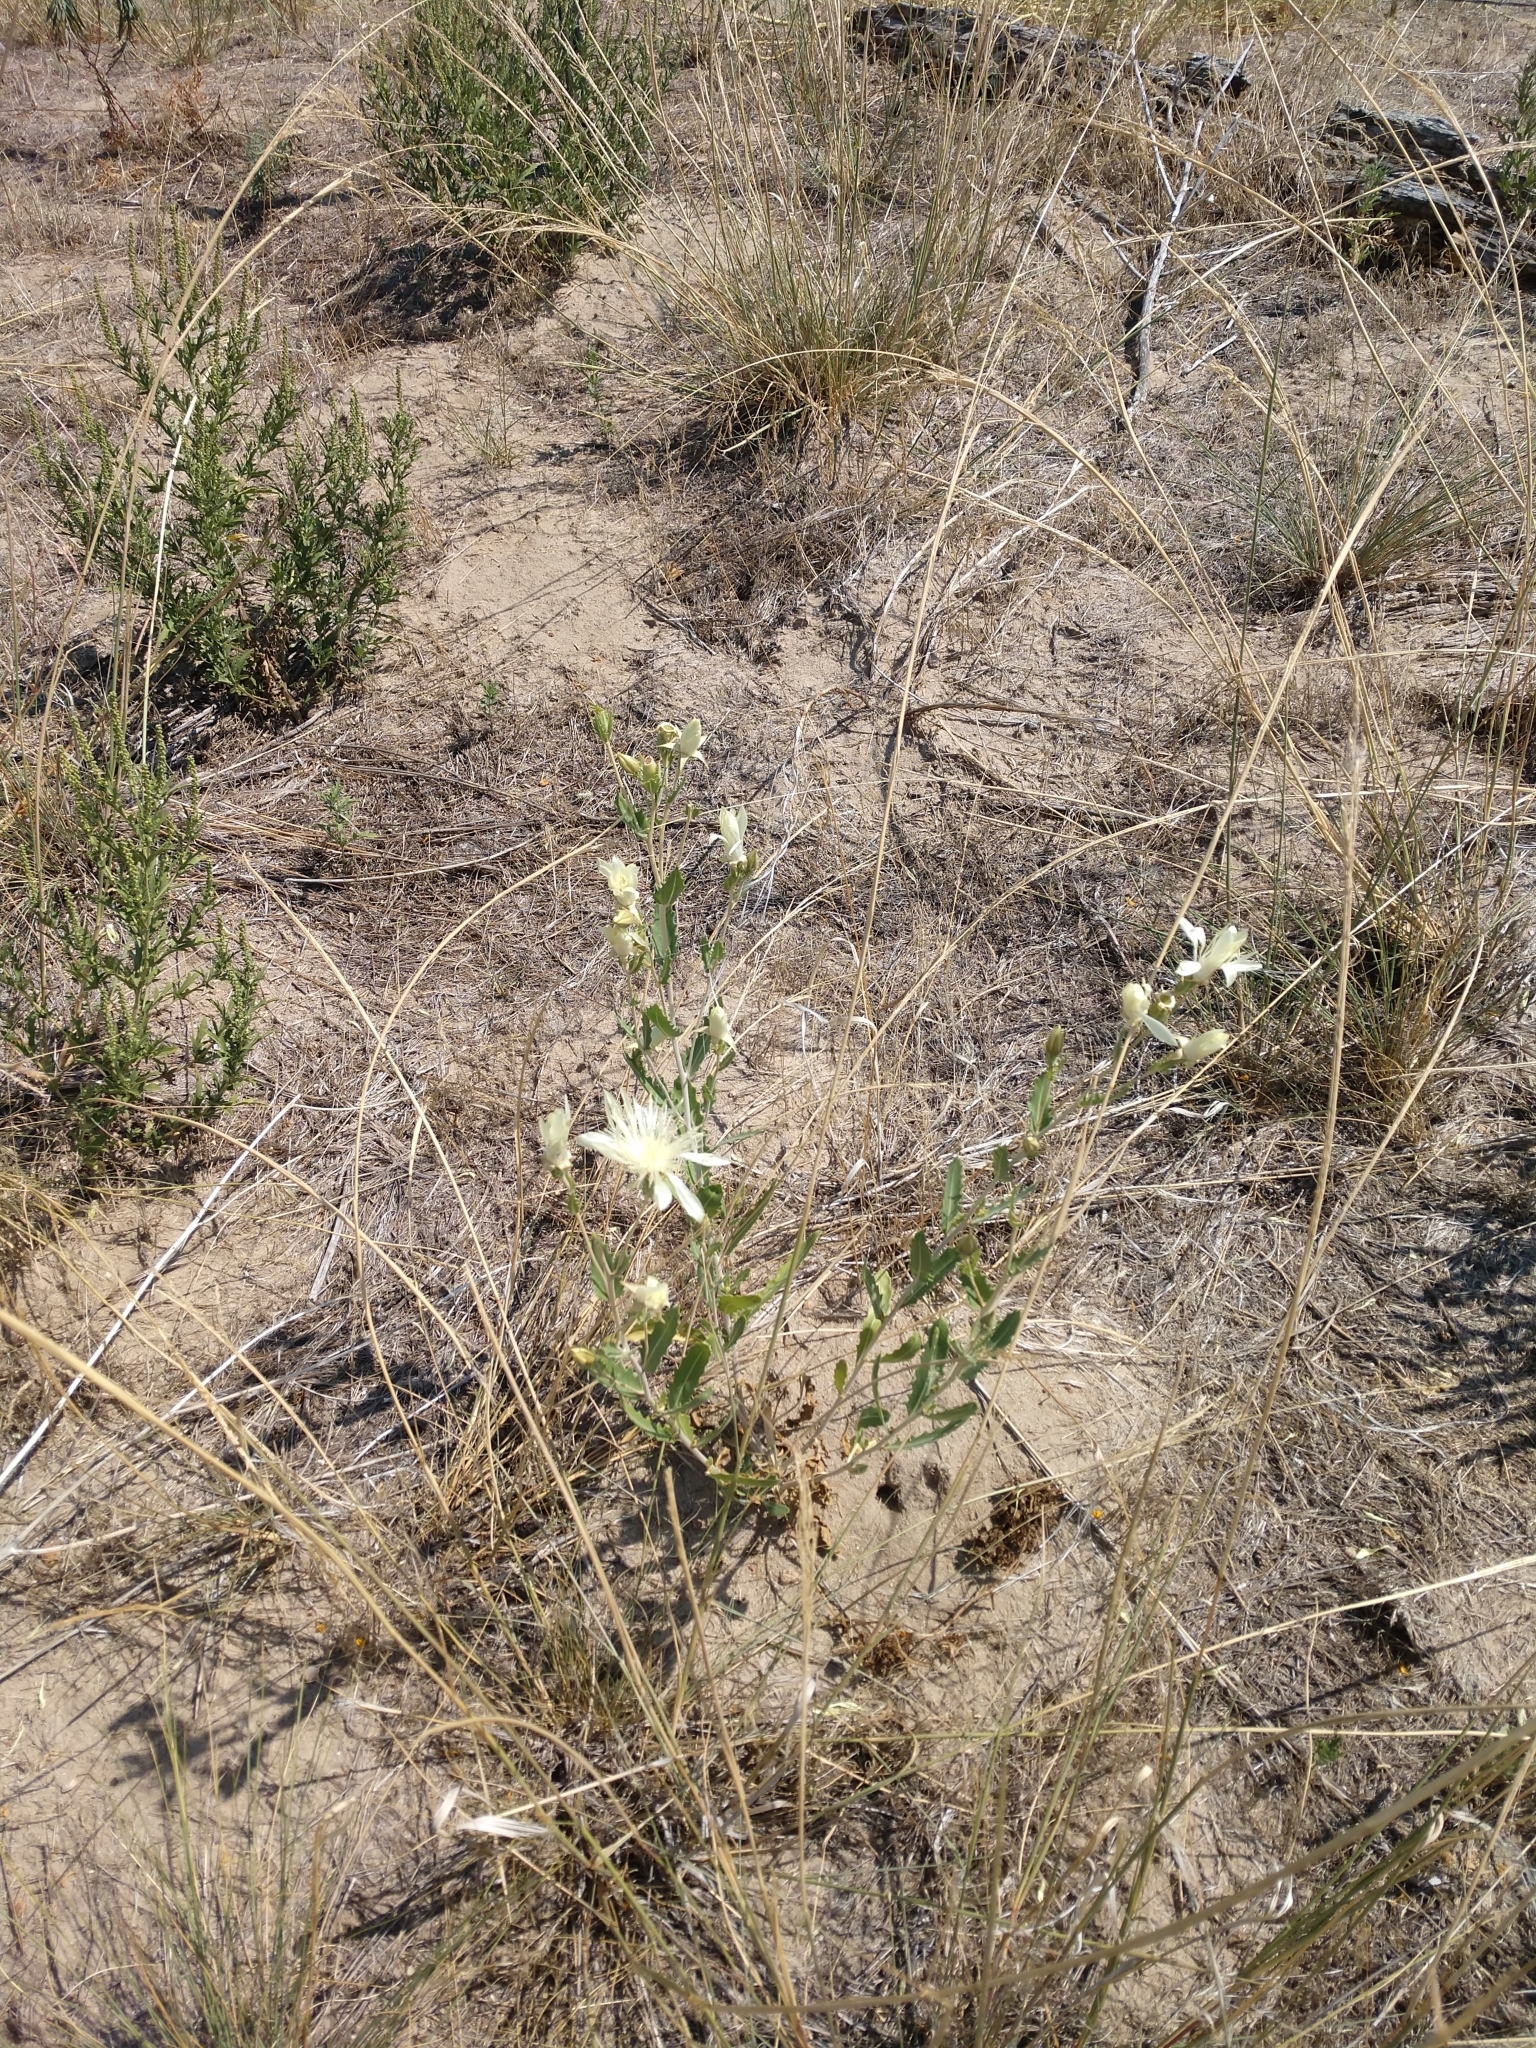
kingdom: Plantae
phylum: Tracheophyta
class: Magnoliopsida
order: Cornales
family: Loasaceae
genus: Mentzelia
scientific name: Mentzelia nuda
